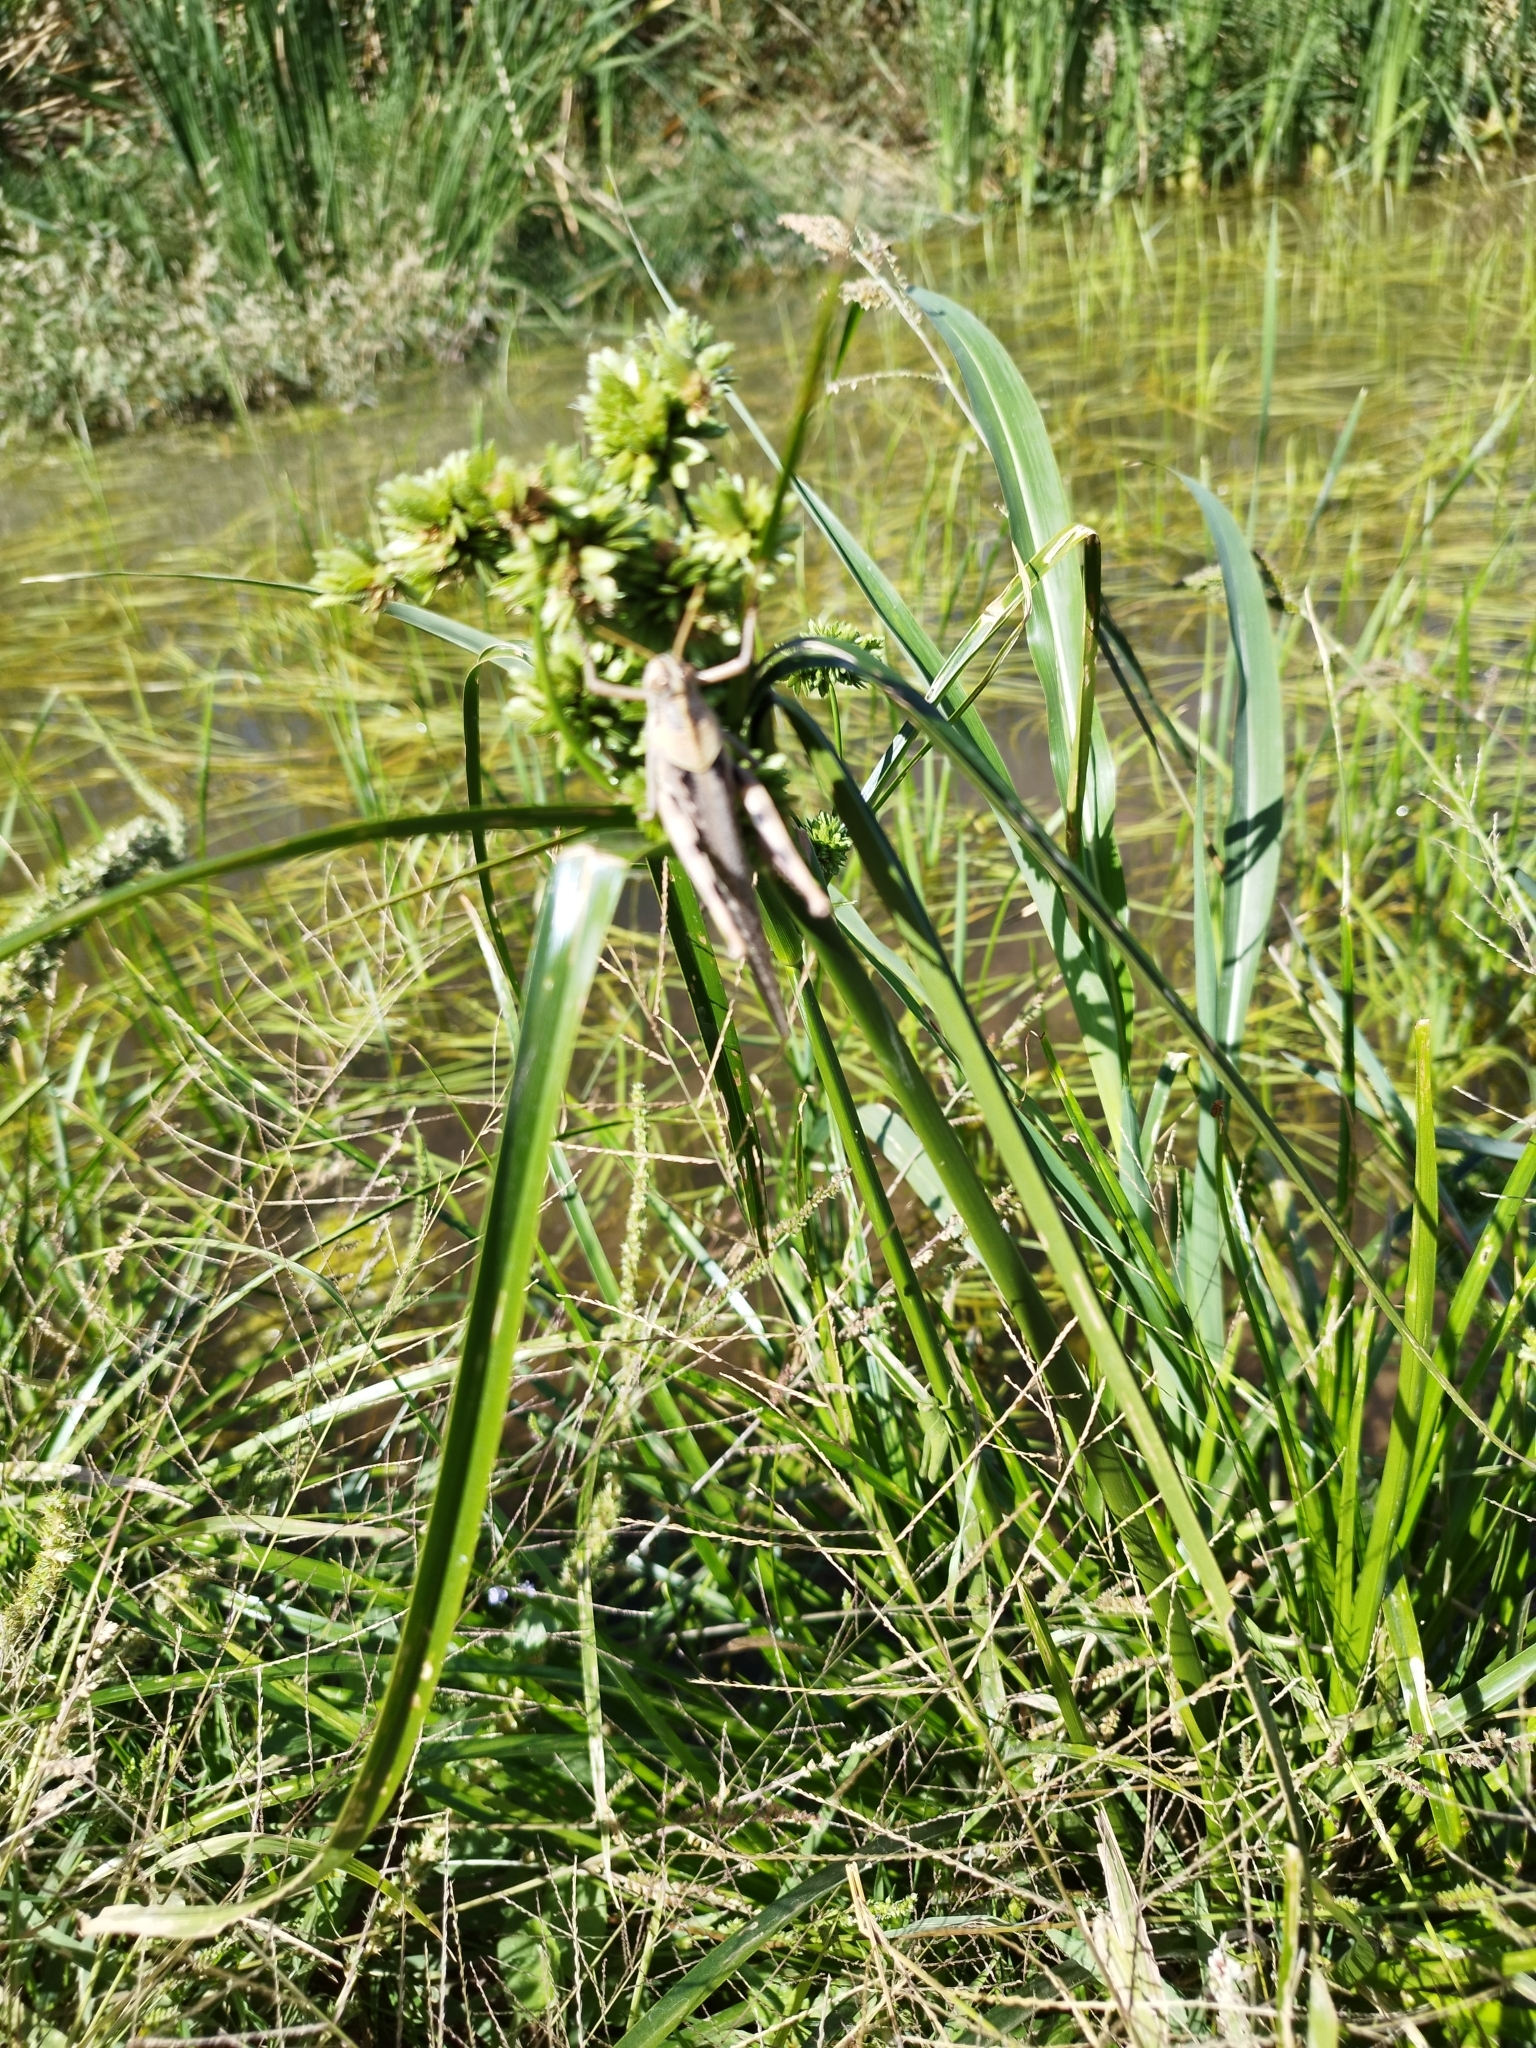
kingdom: Animalia
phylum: Arthropoda
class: Insecta
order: Orthoptera
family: Acrididae
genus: Schistocerca
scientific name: Schistocerca nitens
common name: Vagrant grasshopper
